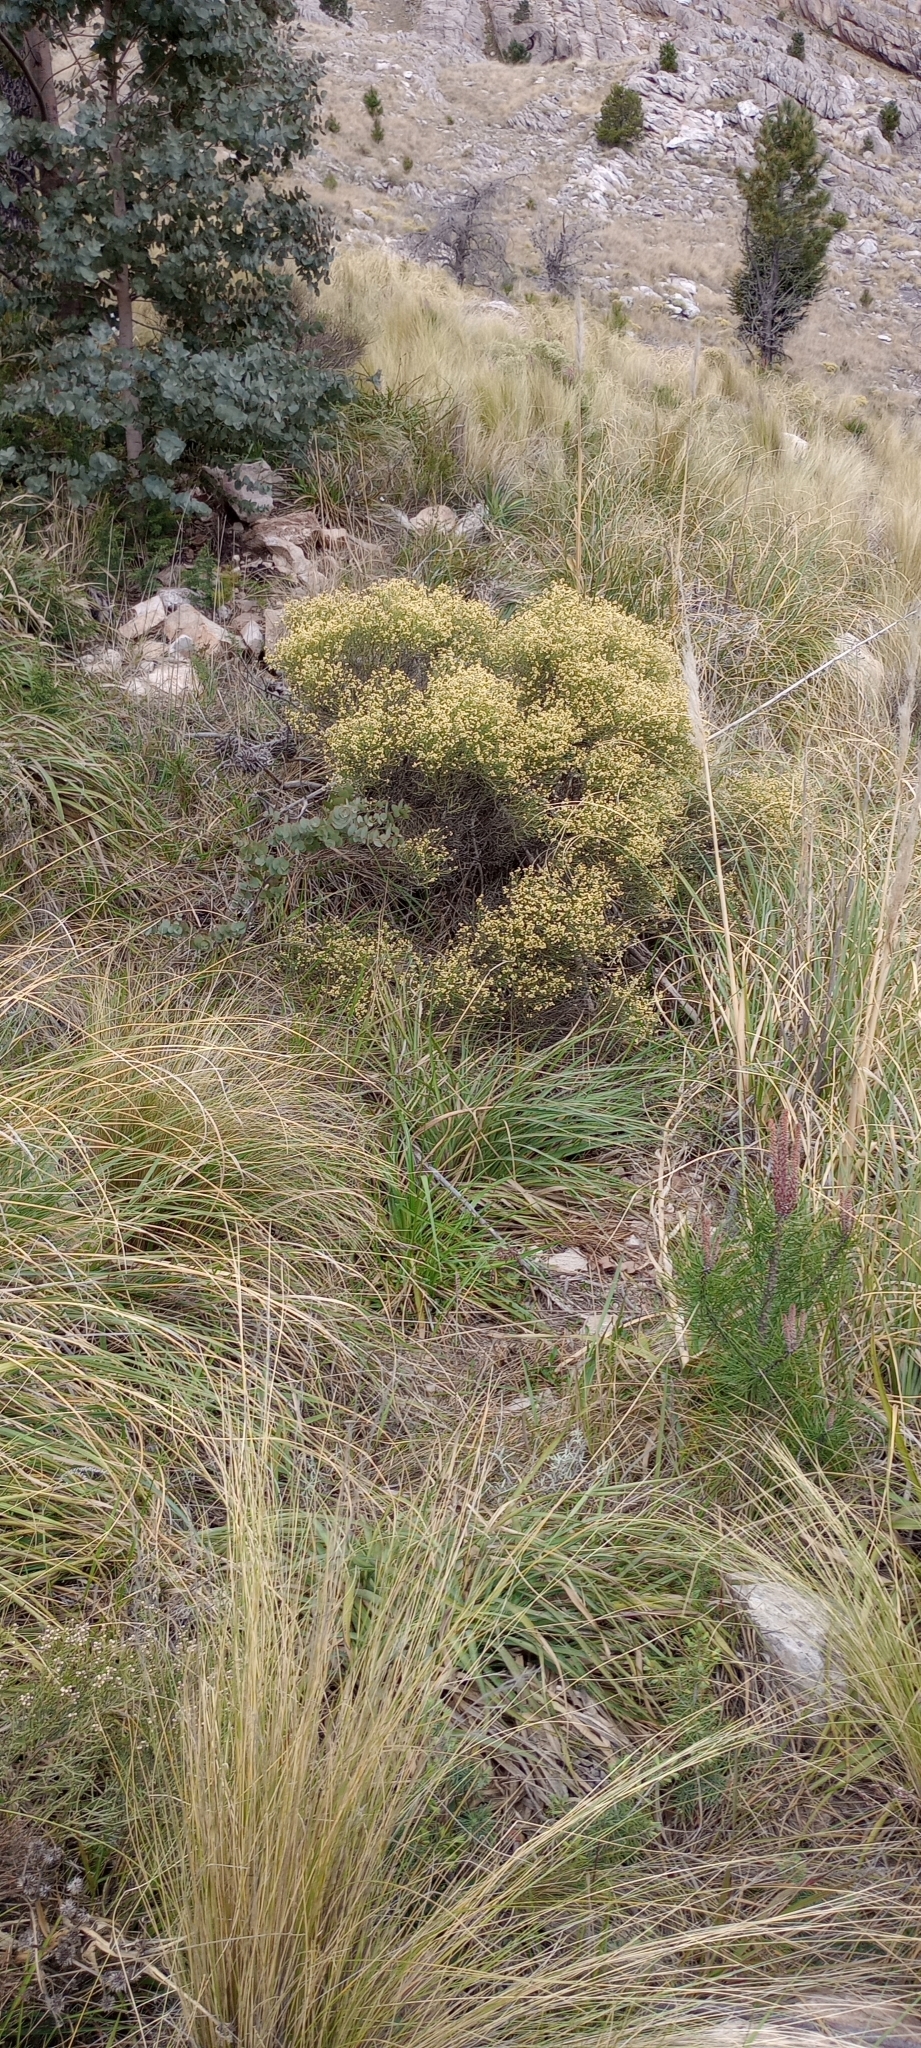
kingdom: Plantae
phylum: Tracheophyta
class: Magnoliopsida
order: Asterales
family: Asteraceae
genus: Baccharis
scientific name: Baccharis genistifolia
